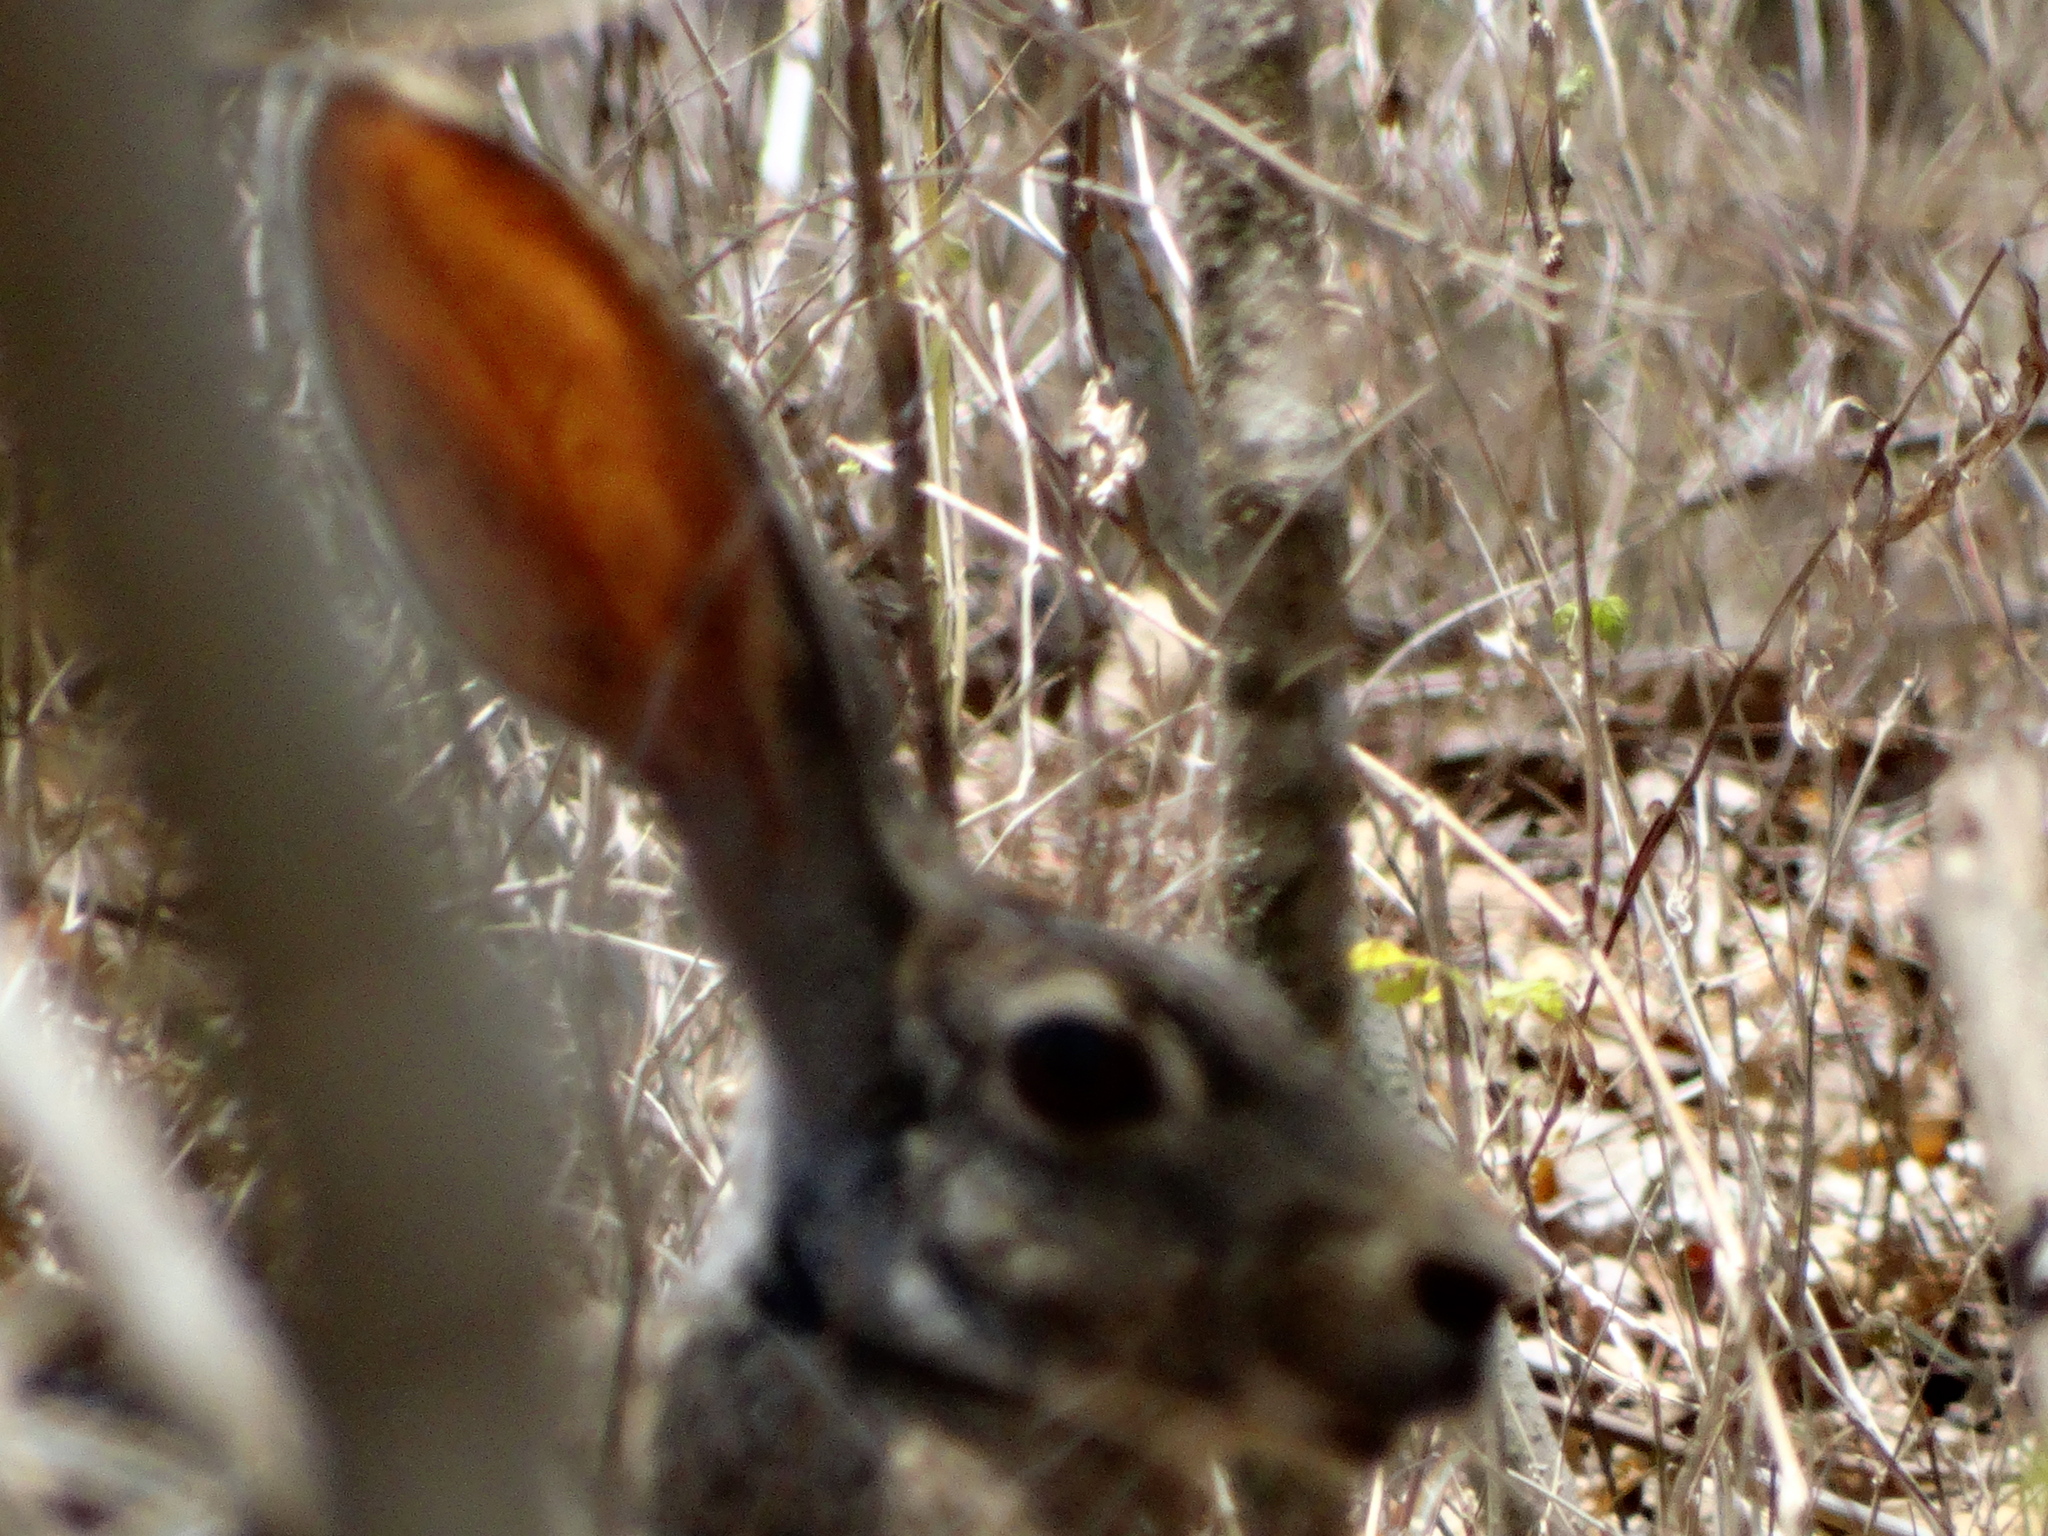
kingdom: Animalia
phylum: Chordata
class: Mammalia
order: Lagomorpha
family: Leporidae
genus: Lepus
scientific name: Lepus alleni
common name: Antelope jackrabbit
